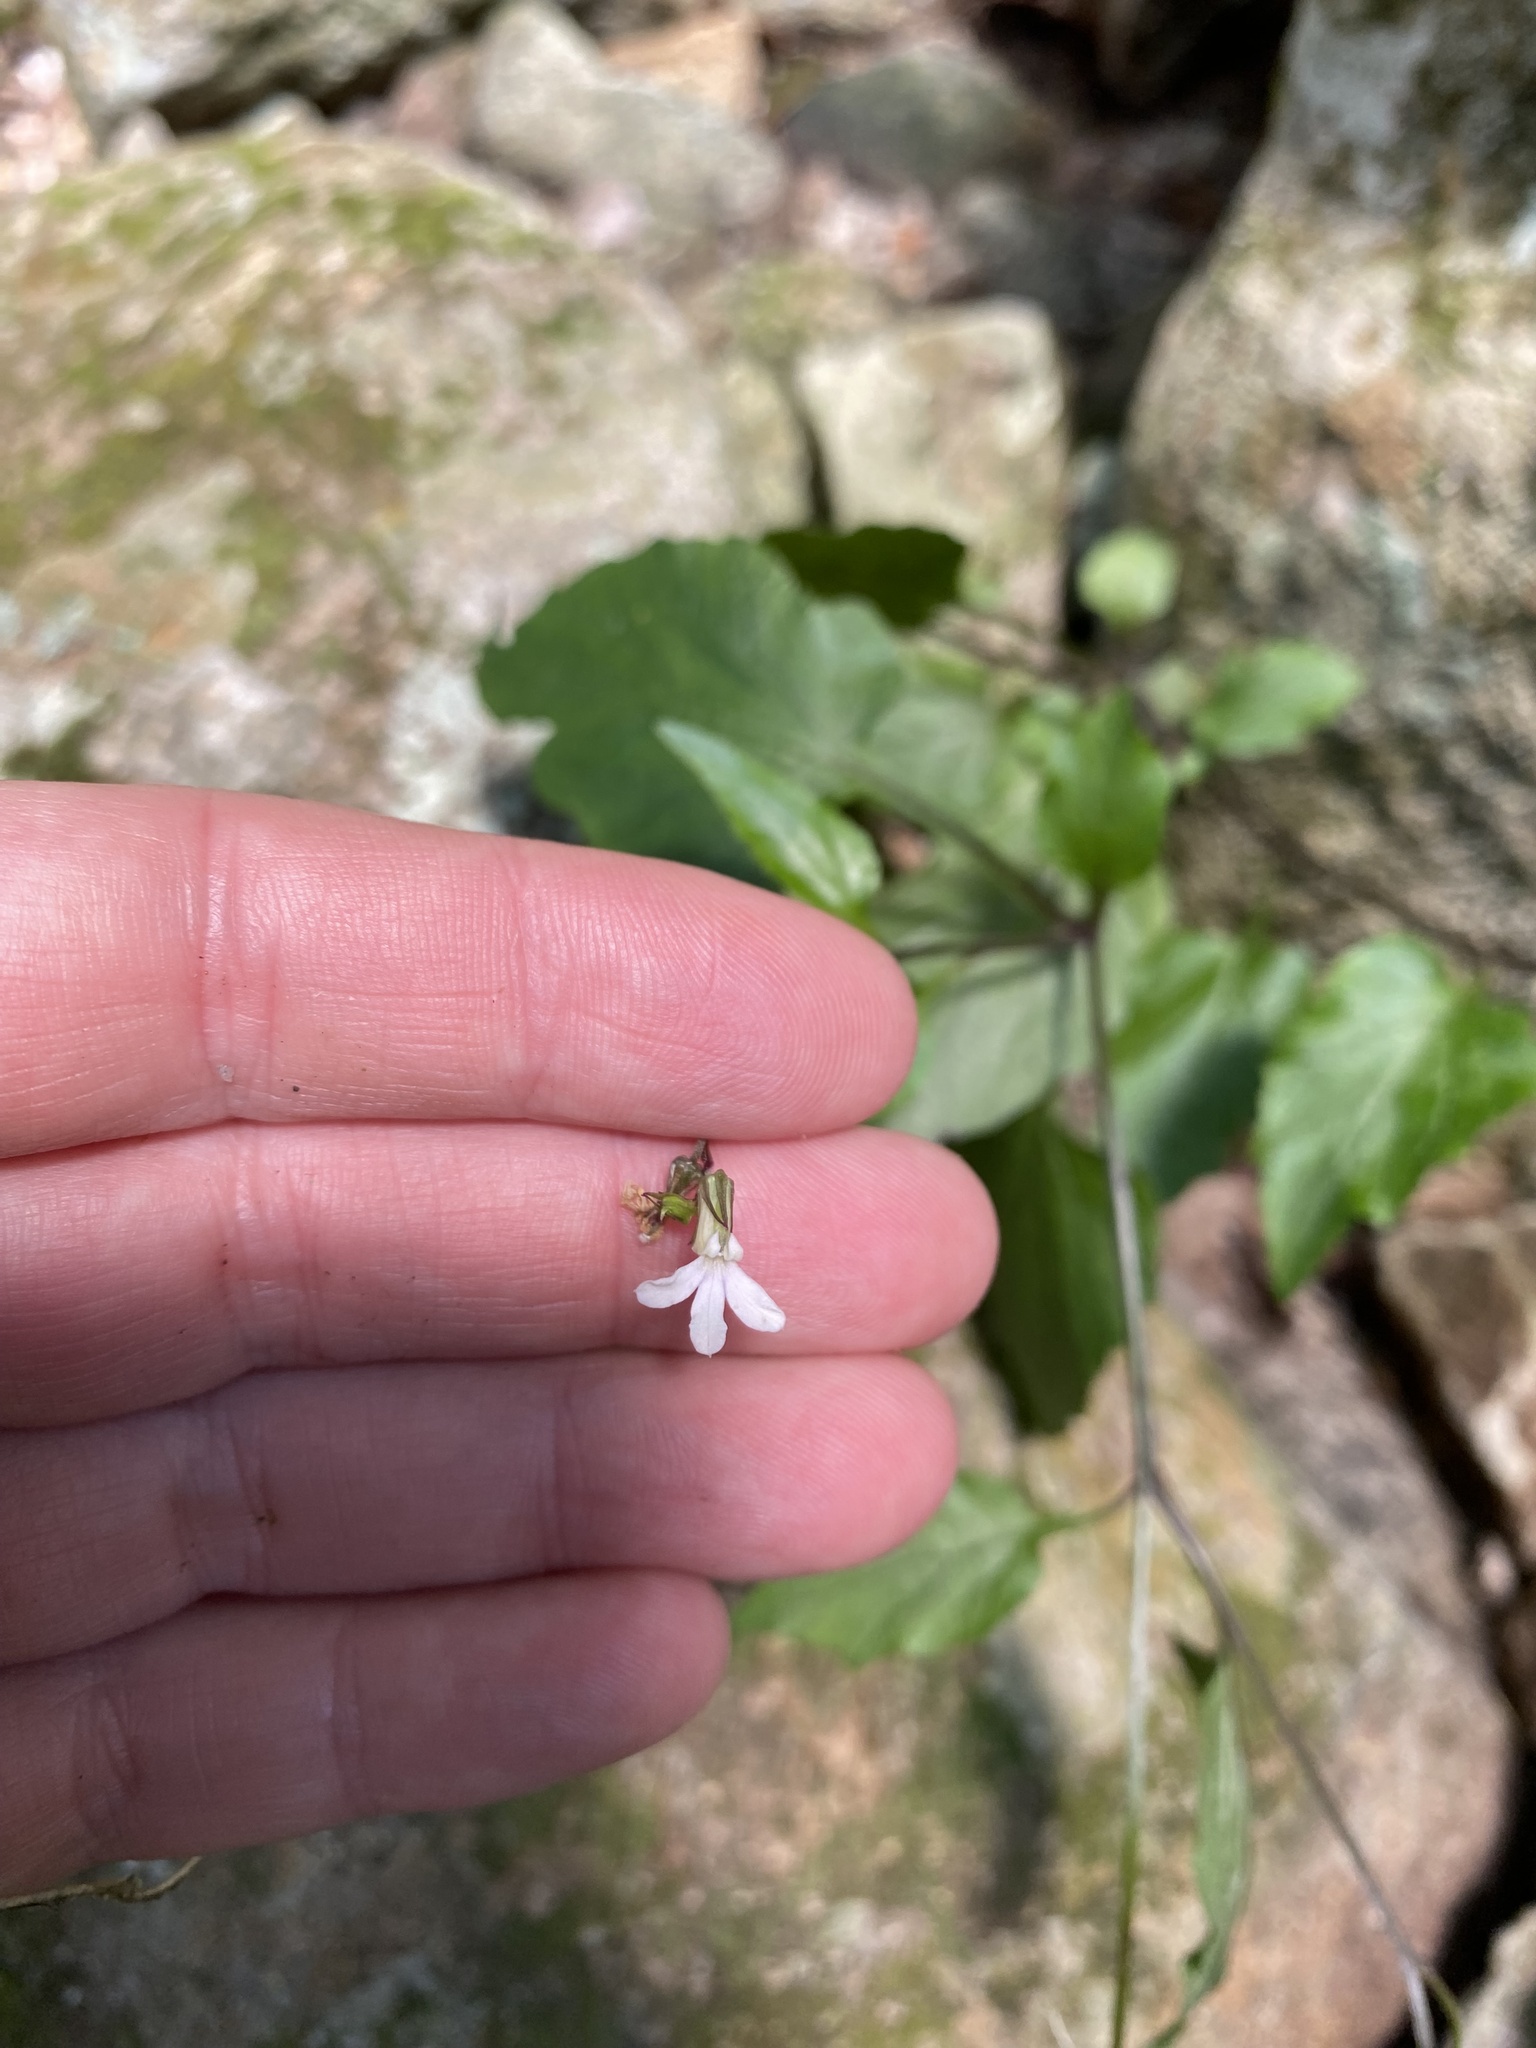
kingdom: Plantae
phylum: Tracheophyta
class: Magnoliopsida
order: Asterales
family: Campanulaceae
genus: Lobelia
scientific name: Lobelia malowensis
